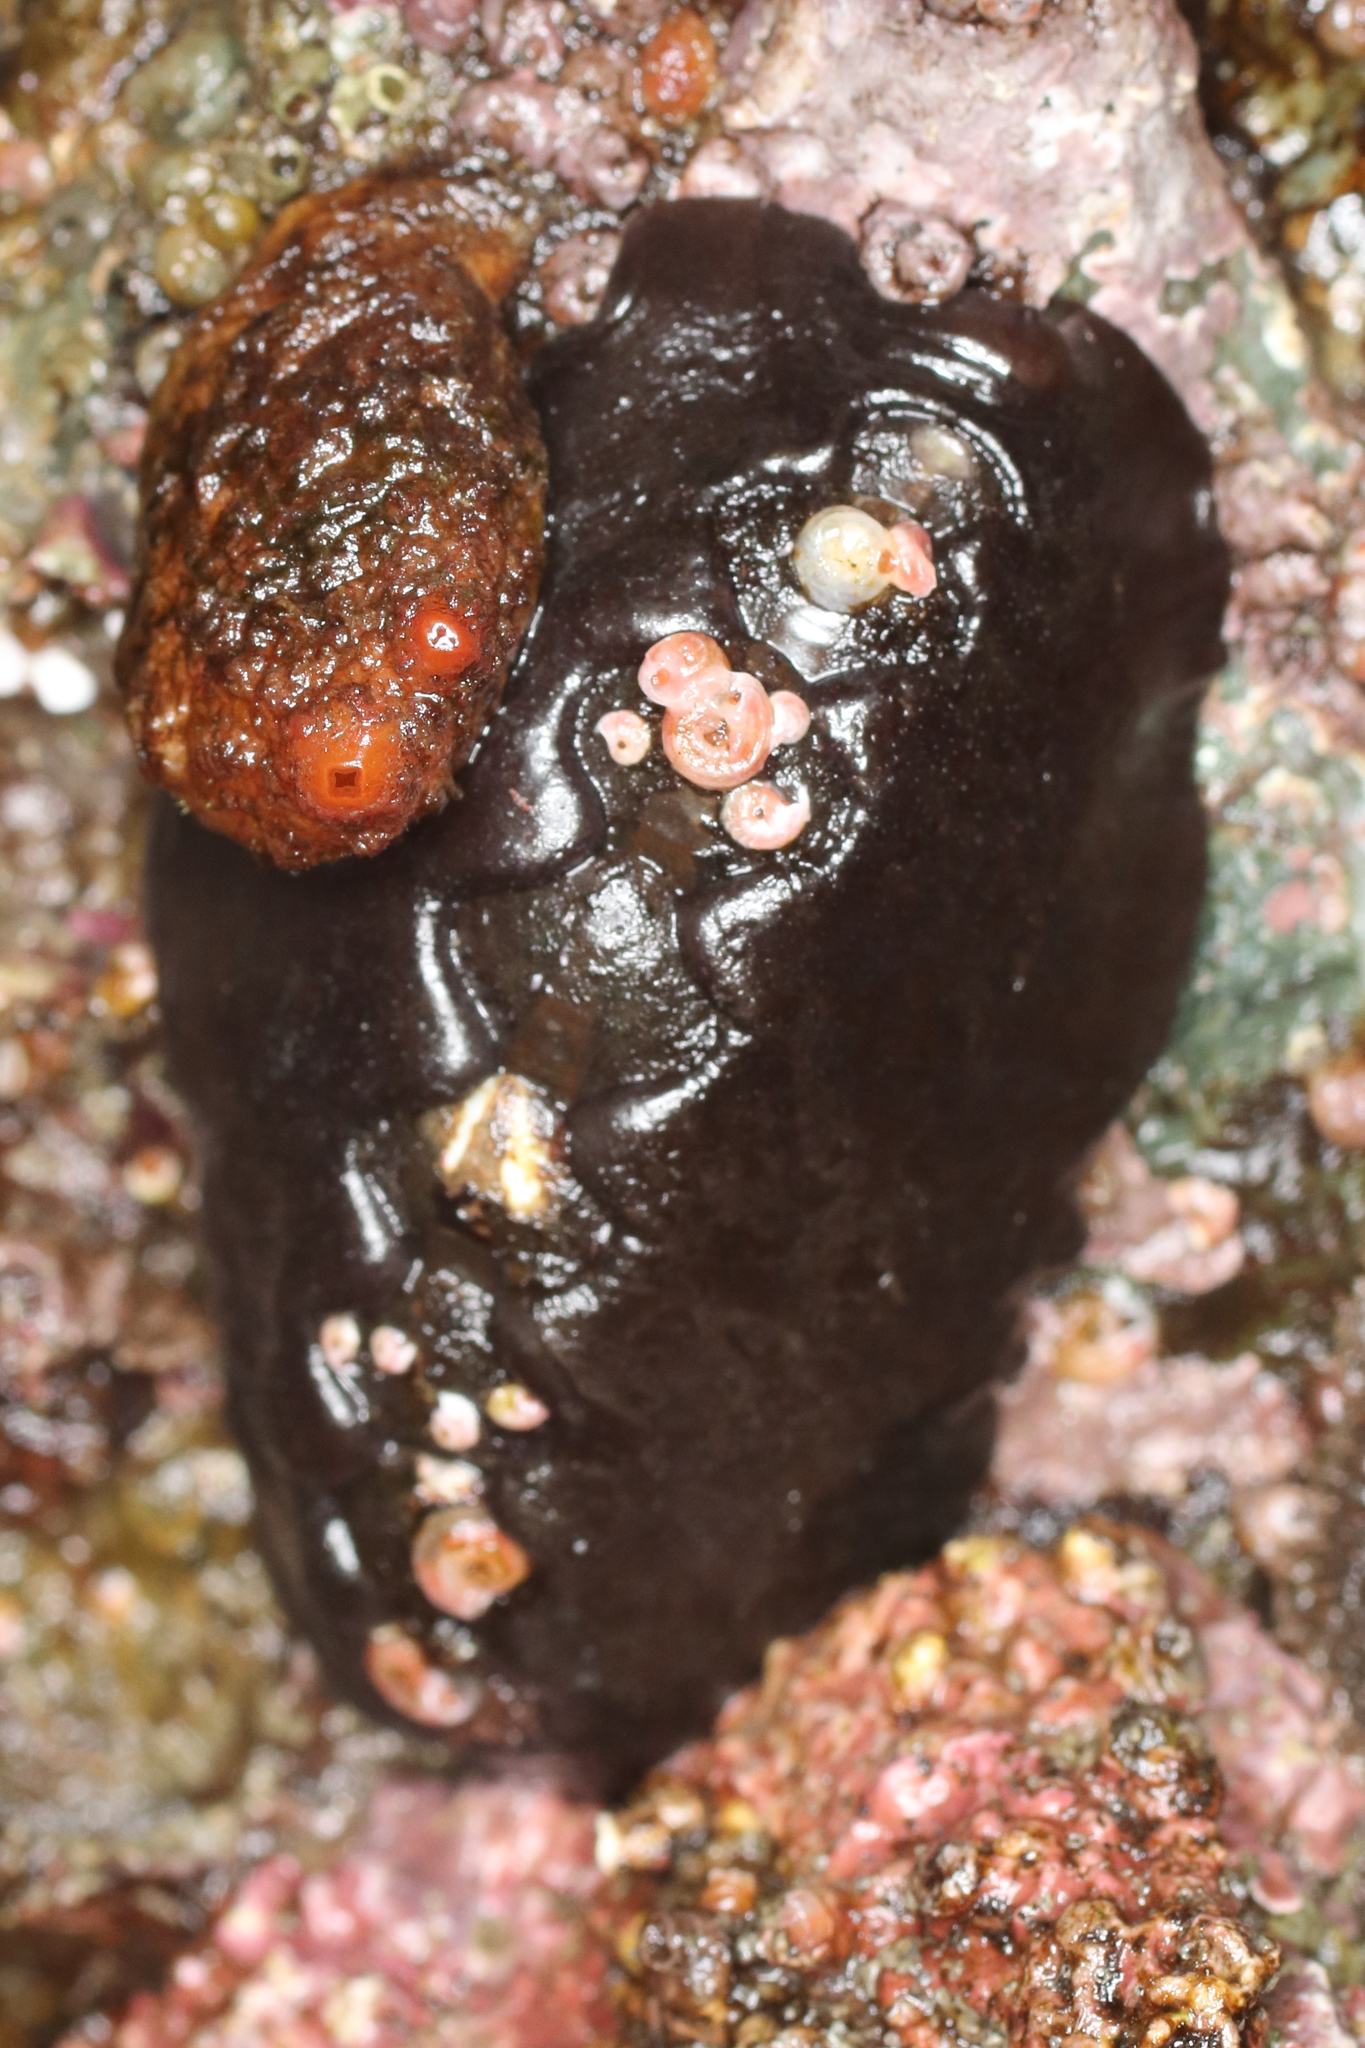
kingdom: Animalia
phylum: Mollusca
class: Polyplacophora
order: Chitonida
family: Mopaliidae
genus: Katharina
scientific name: Katharina tunicata
